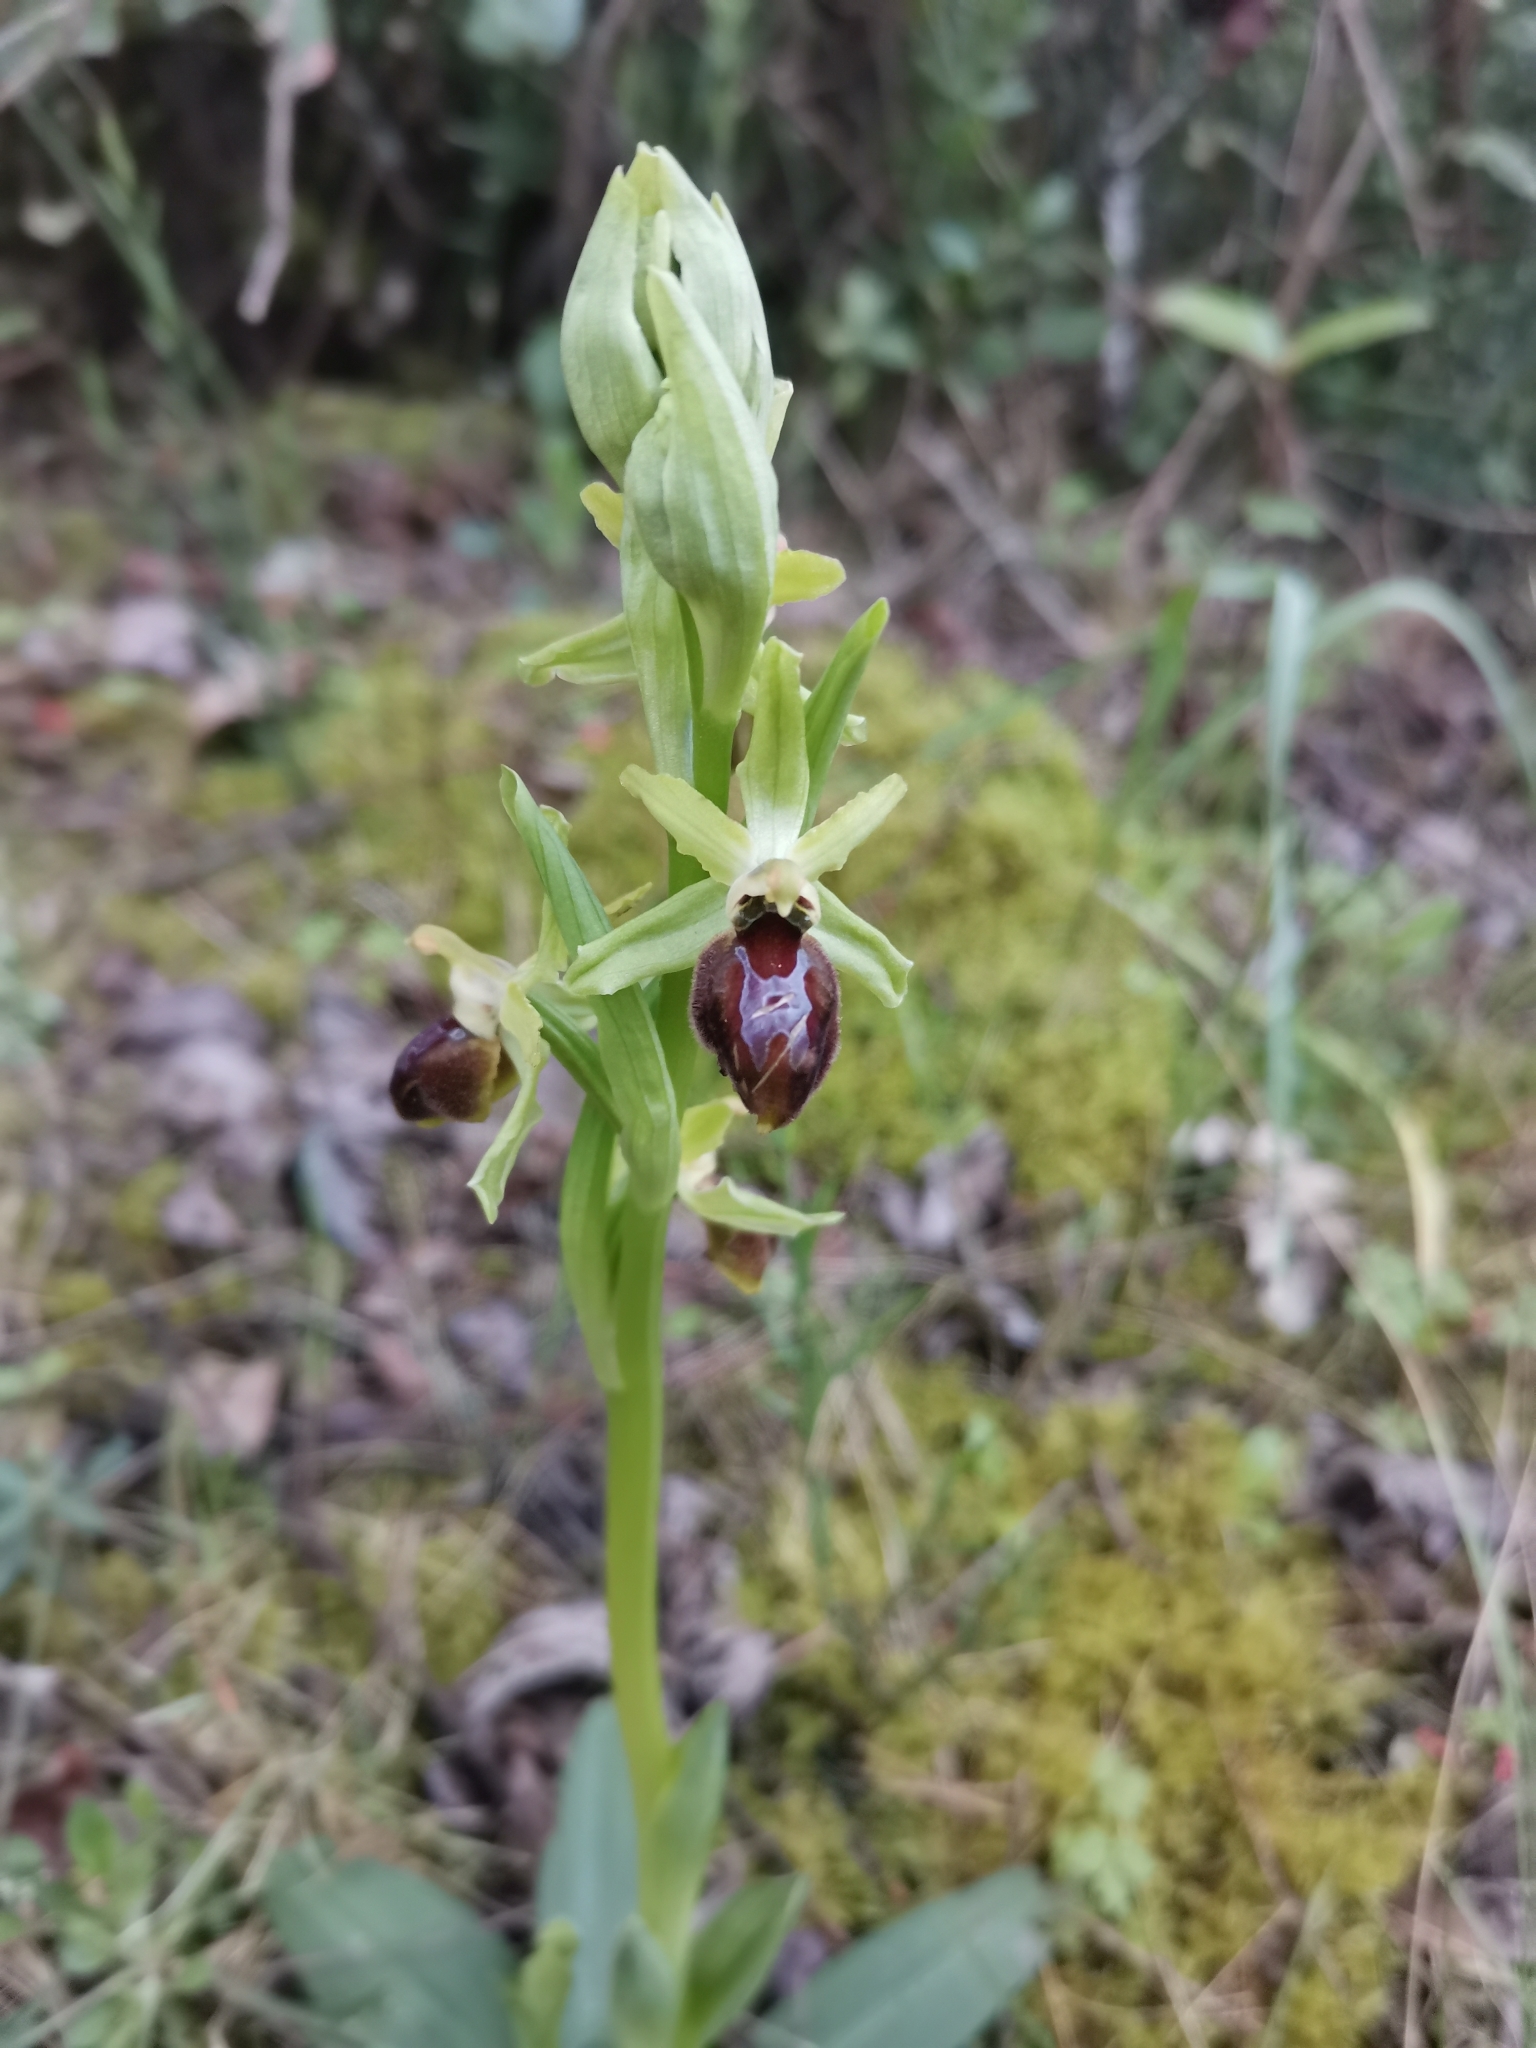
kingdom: Plantae
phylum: Tracheophyta
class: Liliopsida
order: Asparagales
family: Orchidaceae
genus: Ophrys
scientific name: Ophrys sphegodes
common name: Early spider-orchid
